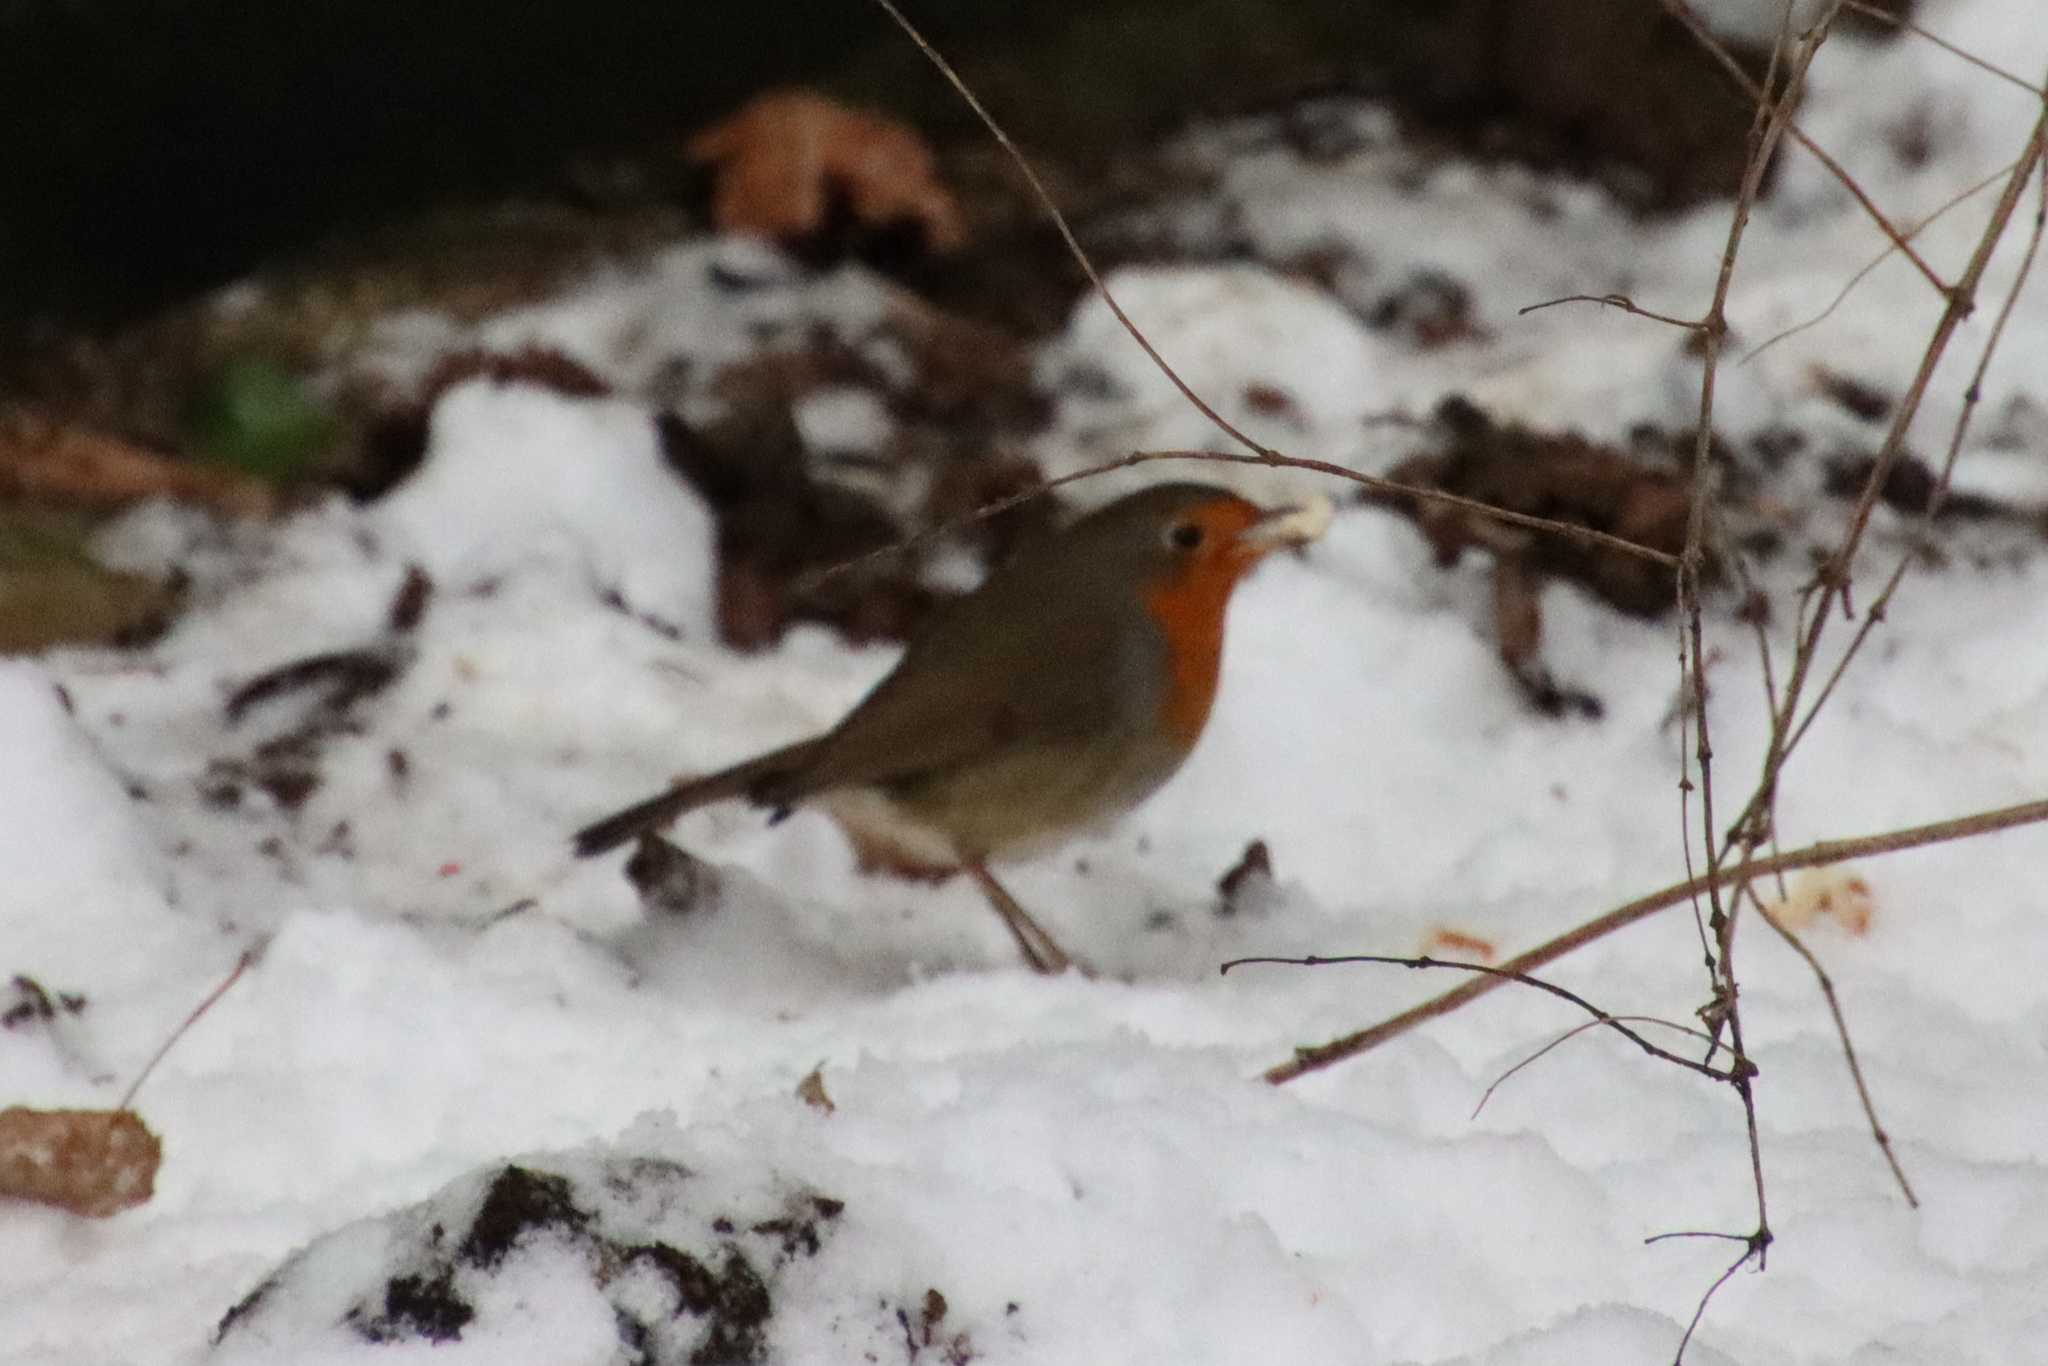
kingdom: Animalia
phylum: Chordata
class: Aves
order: Passeriformes
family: Muscicapidae
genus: Erithacus
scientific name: Erithacus rubecula
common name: European robin
